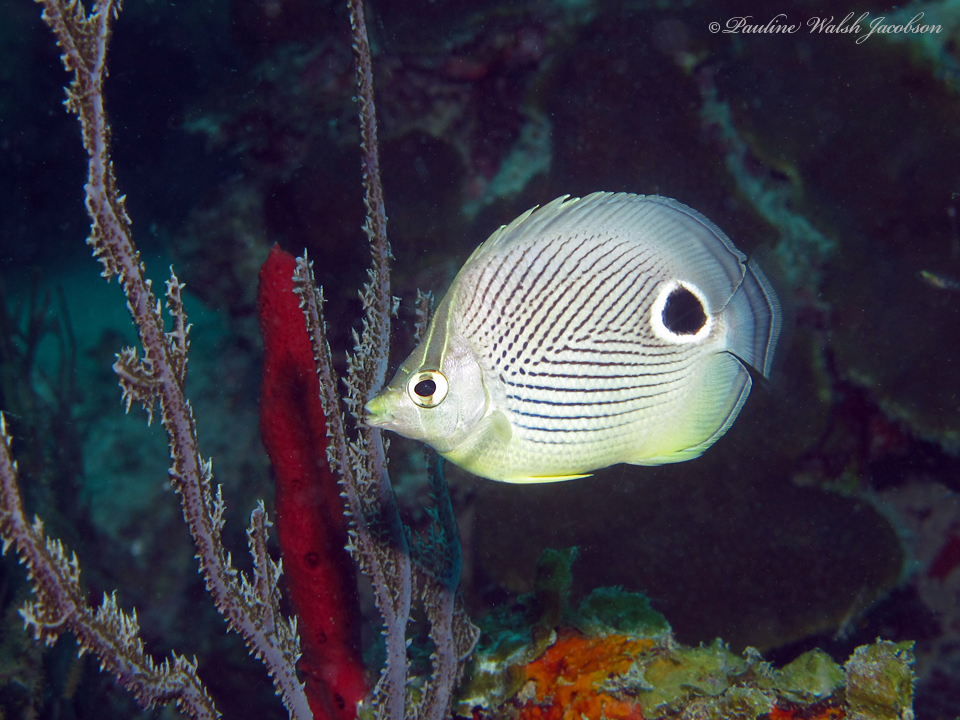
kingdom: Animalia
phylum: Chordata
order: Perciformes
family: Chaetodontidae
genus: Chaetodon
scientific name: Chaetodon capistratus
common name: Kete
